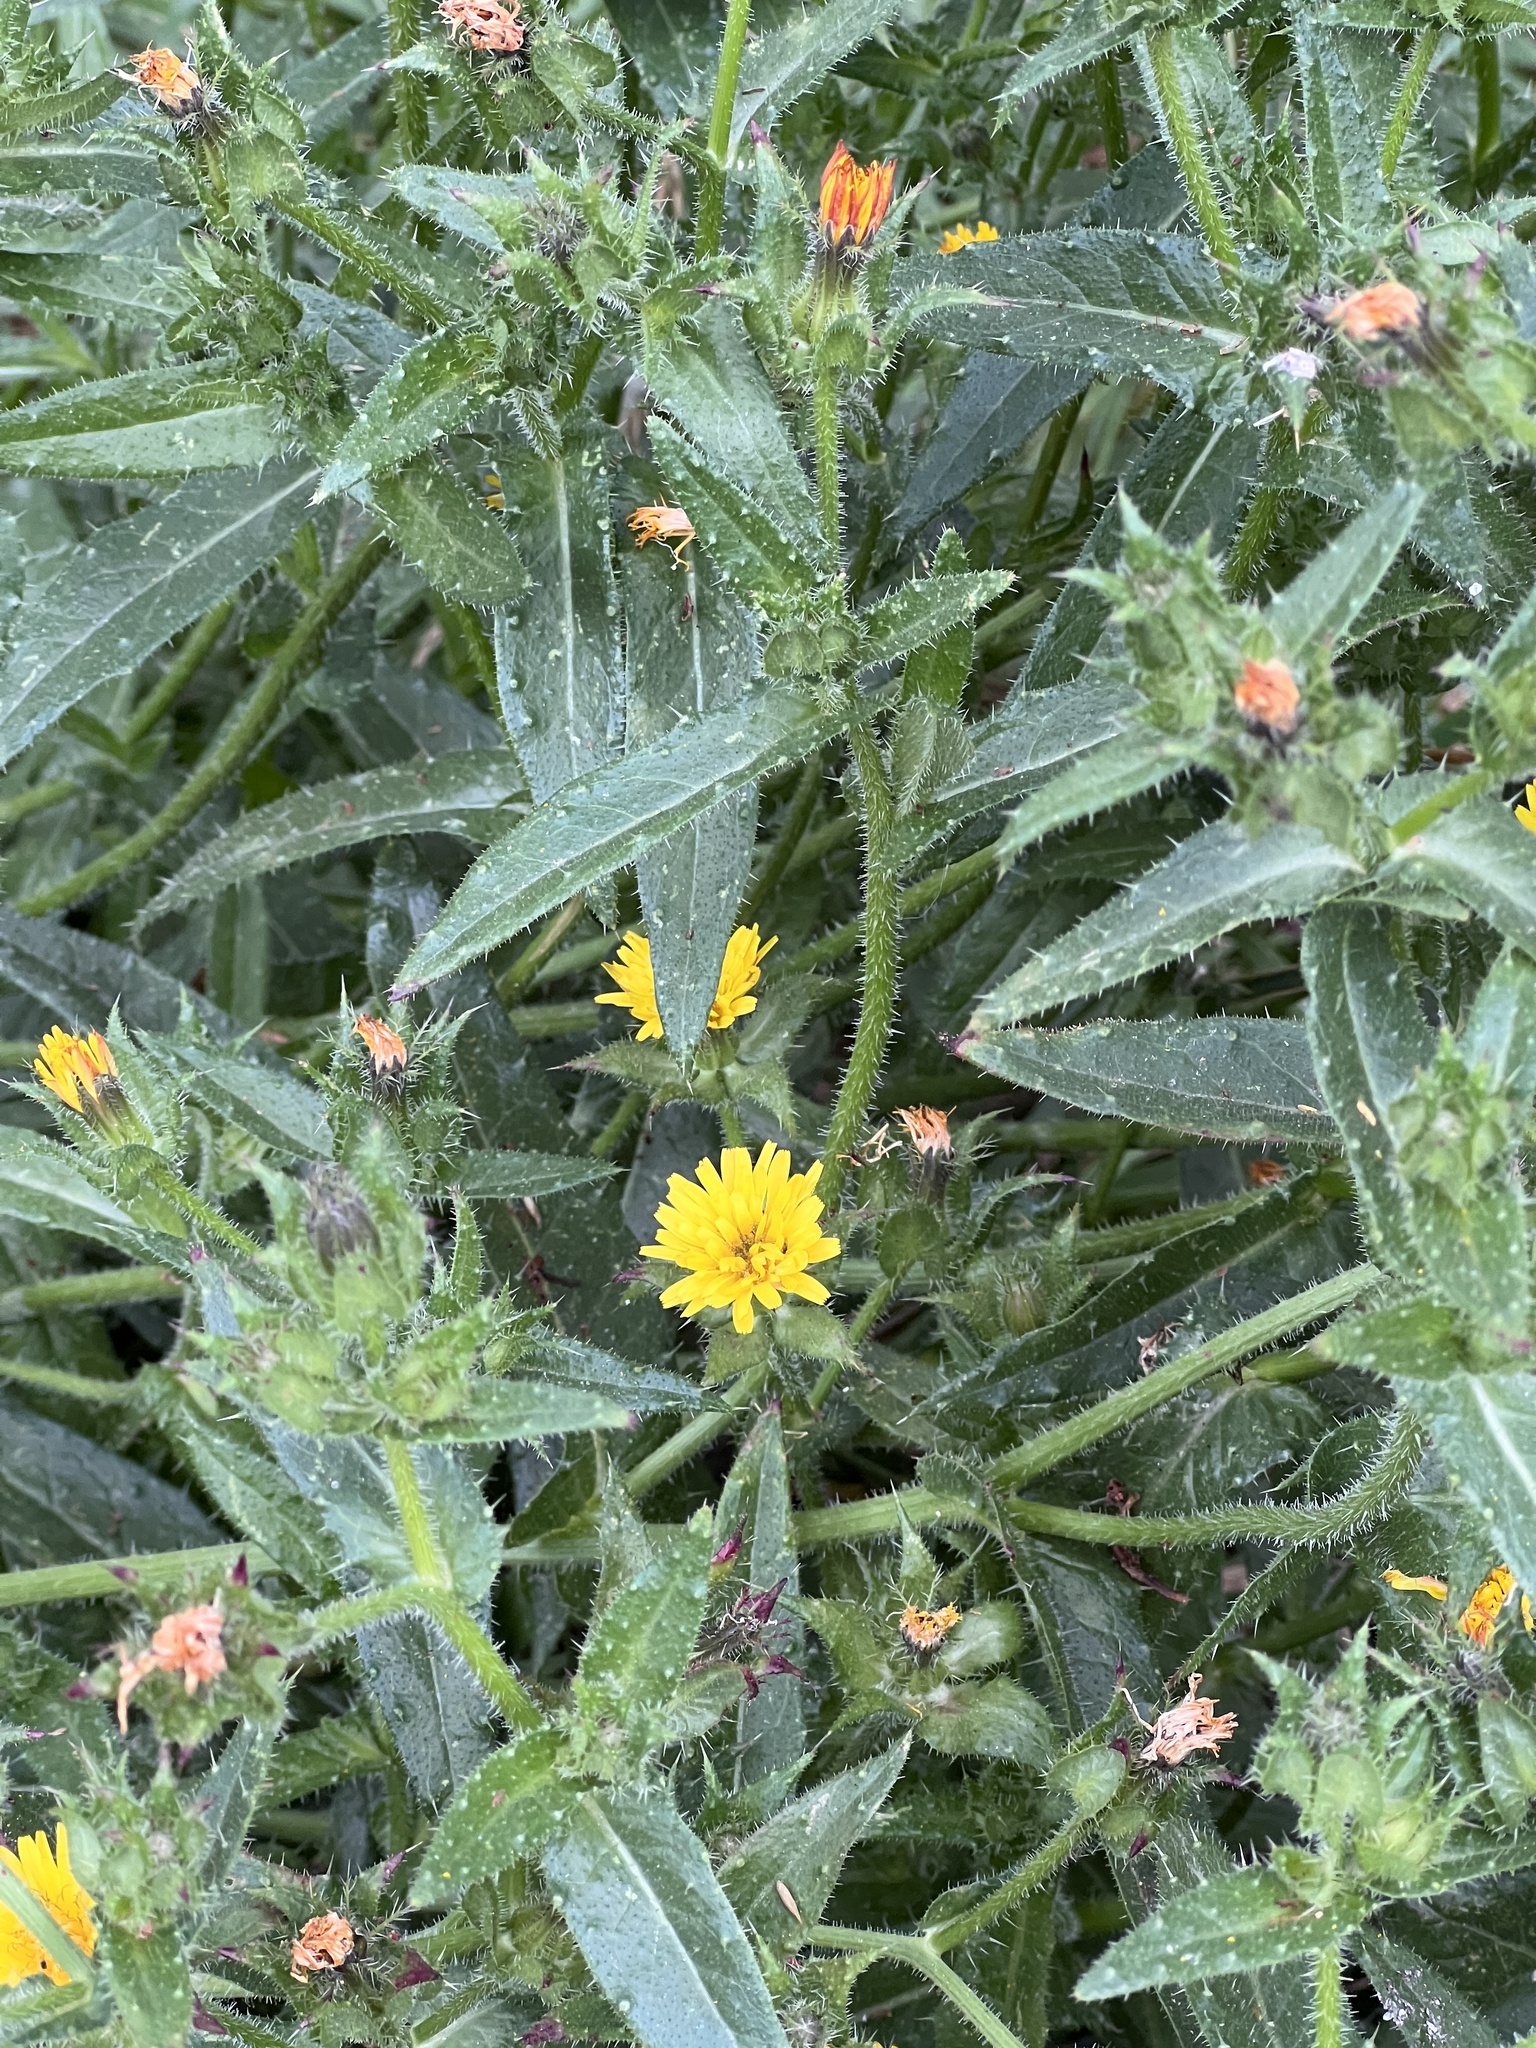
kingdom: Plantae
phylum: Tracheophyta
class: Magnoliopsida
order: Asterales
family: Asteraceae
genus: Helminthotheca
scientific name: Helminthotheca echioides
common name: Ox-tongue
